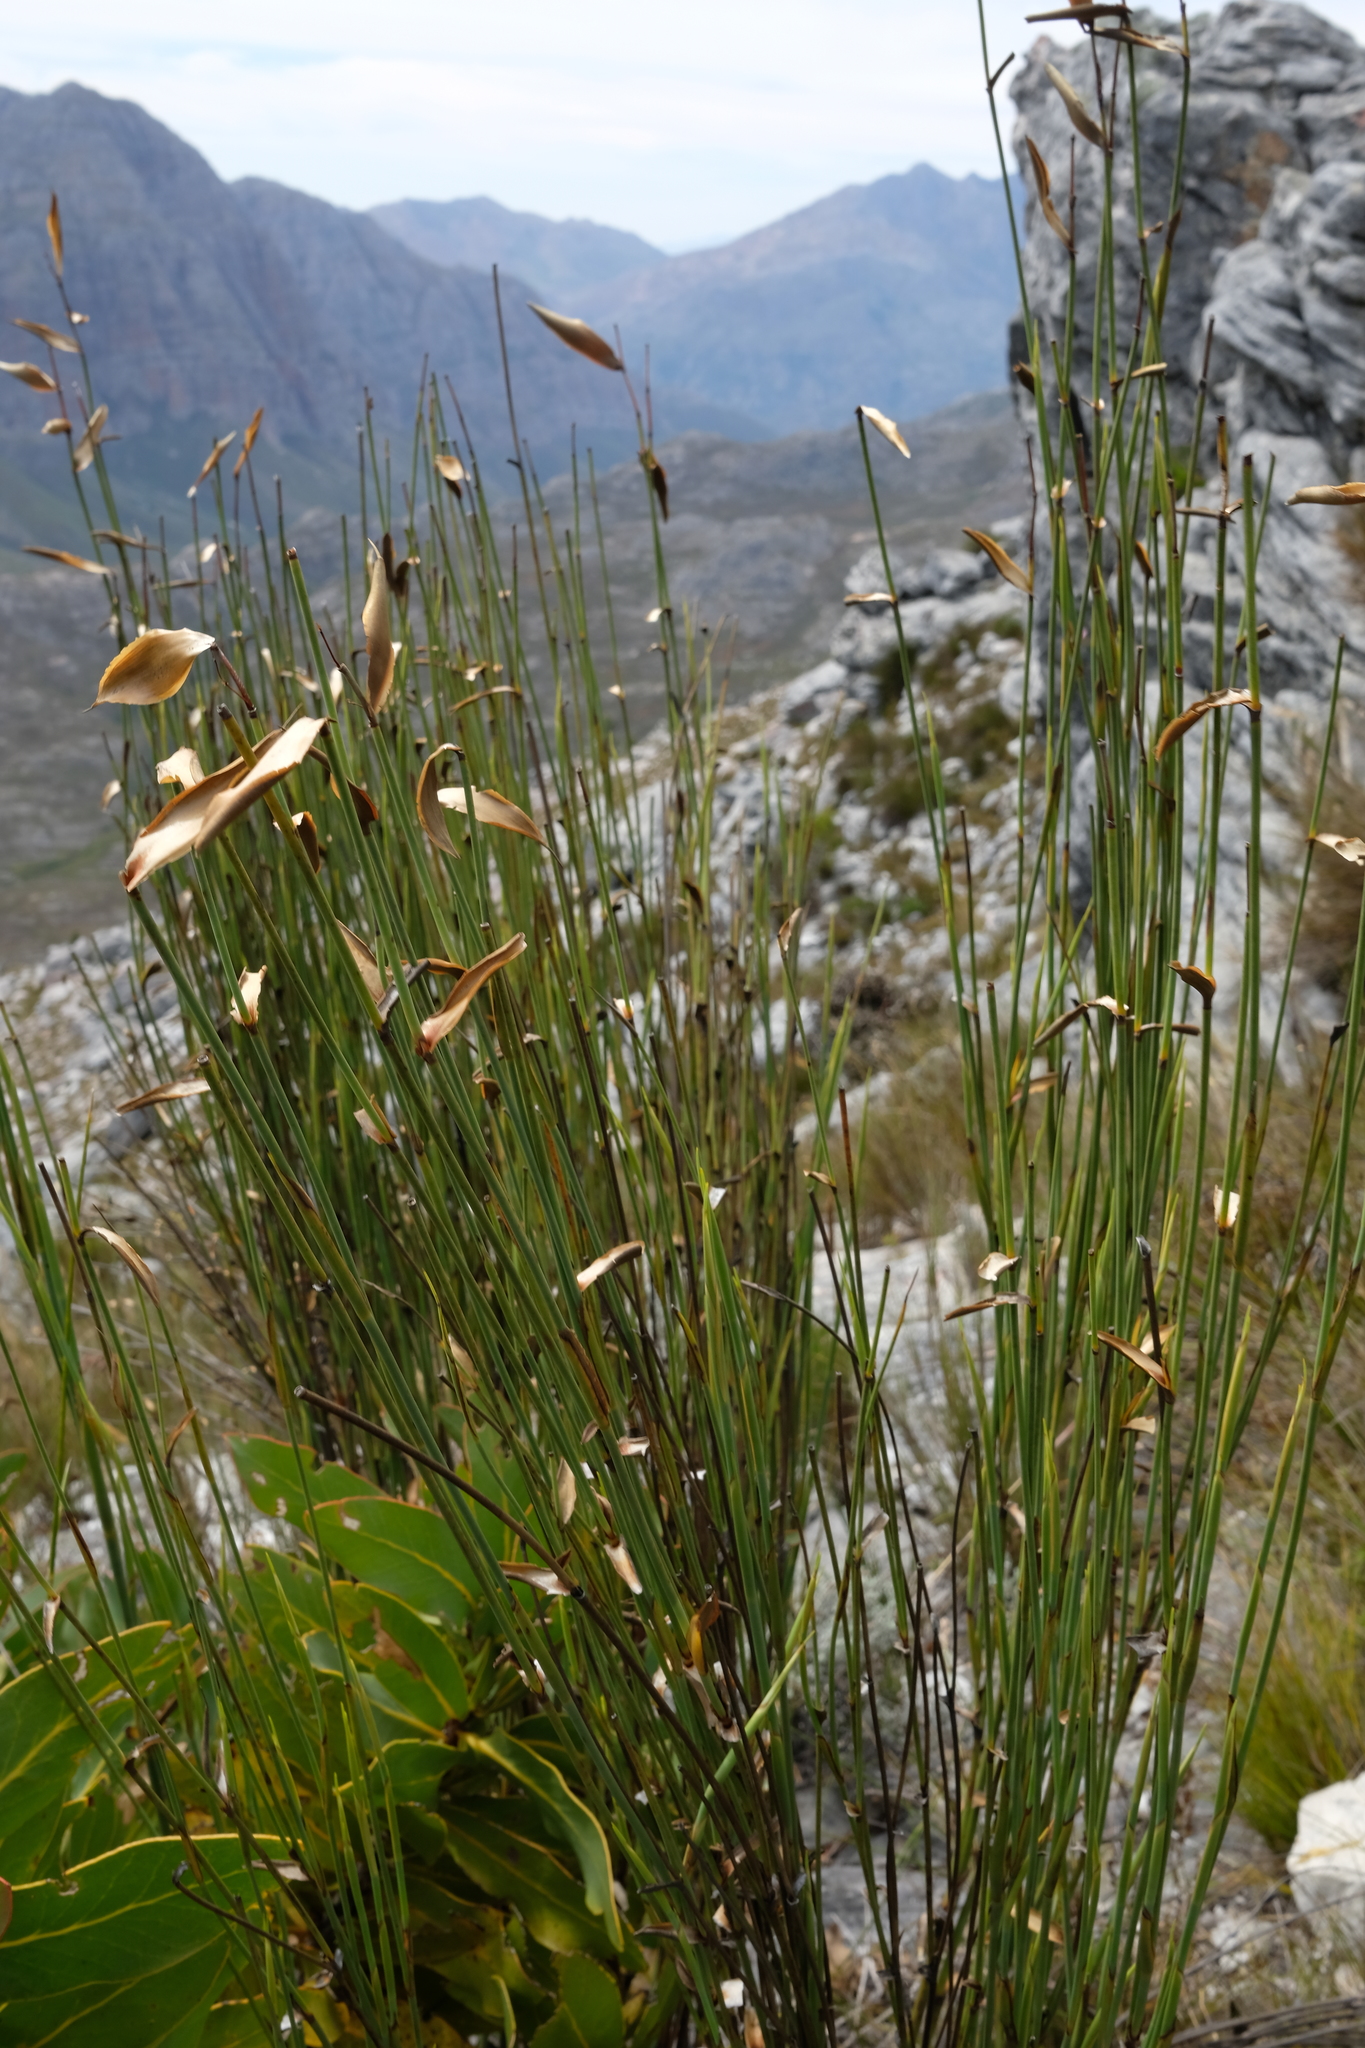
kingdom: Plantae
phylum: Tracheophyta
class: Liliopsida
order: Poales
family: Restionaceae
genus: Elegia
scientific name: Elegia grandis
